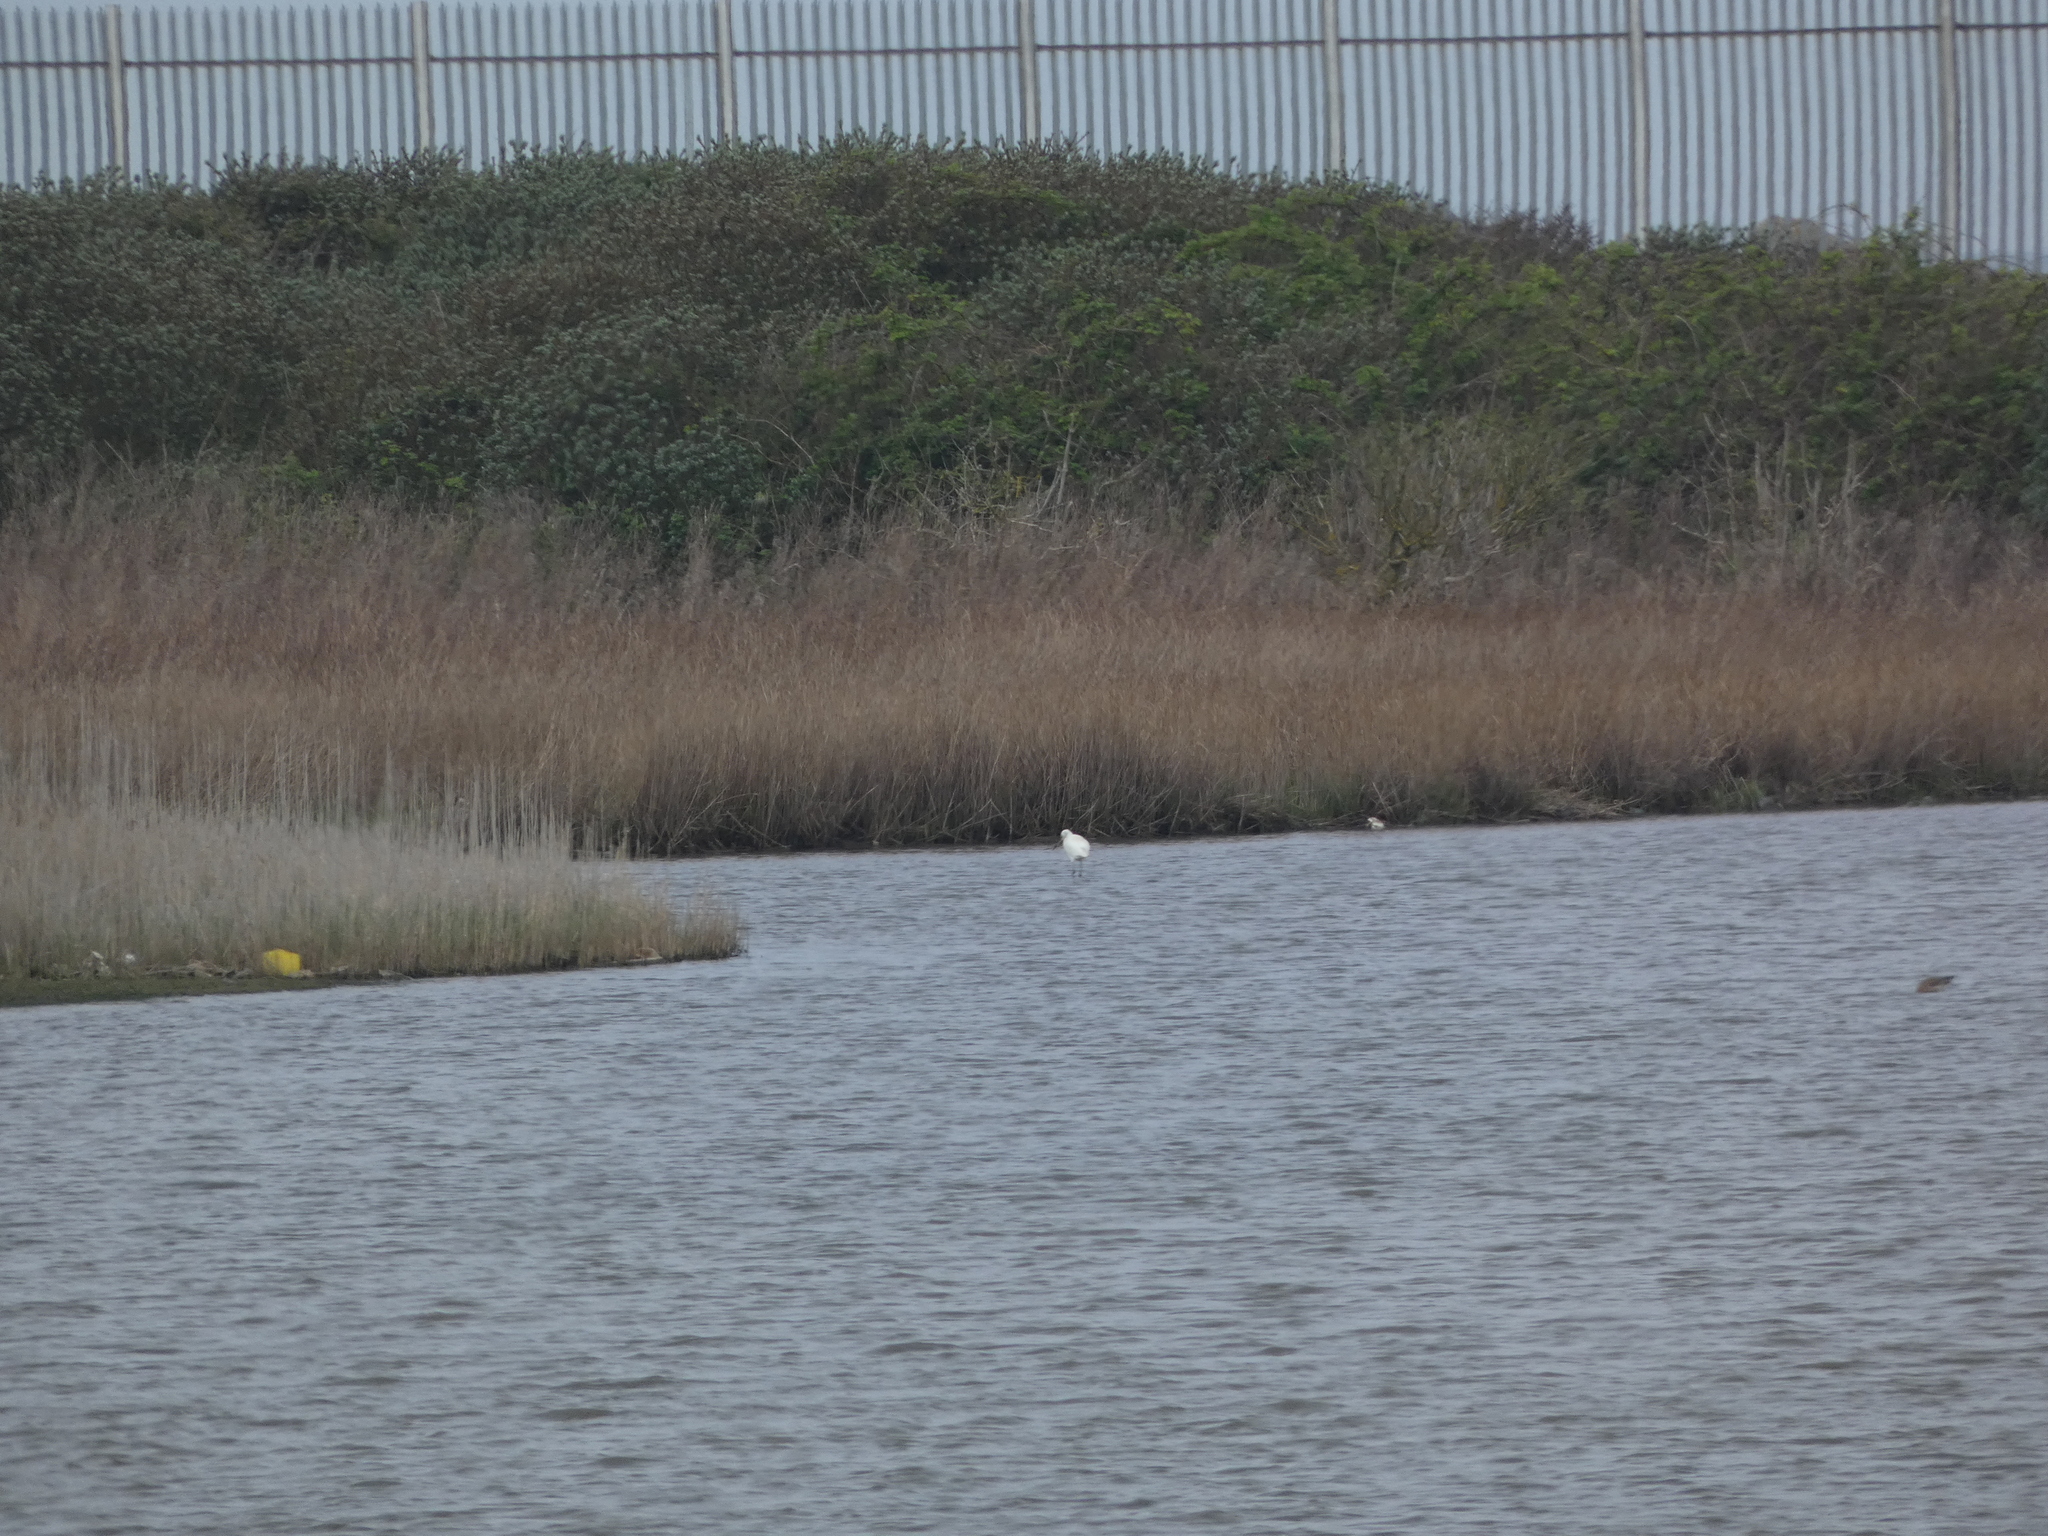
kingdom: Animalia
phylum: Chordata
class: Aves
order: Pelecaniformes
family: Ardeidae
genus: Egretta
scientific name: Egretta garzetta
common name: Little egret
